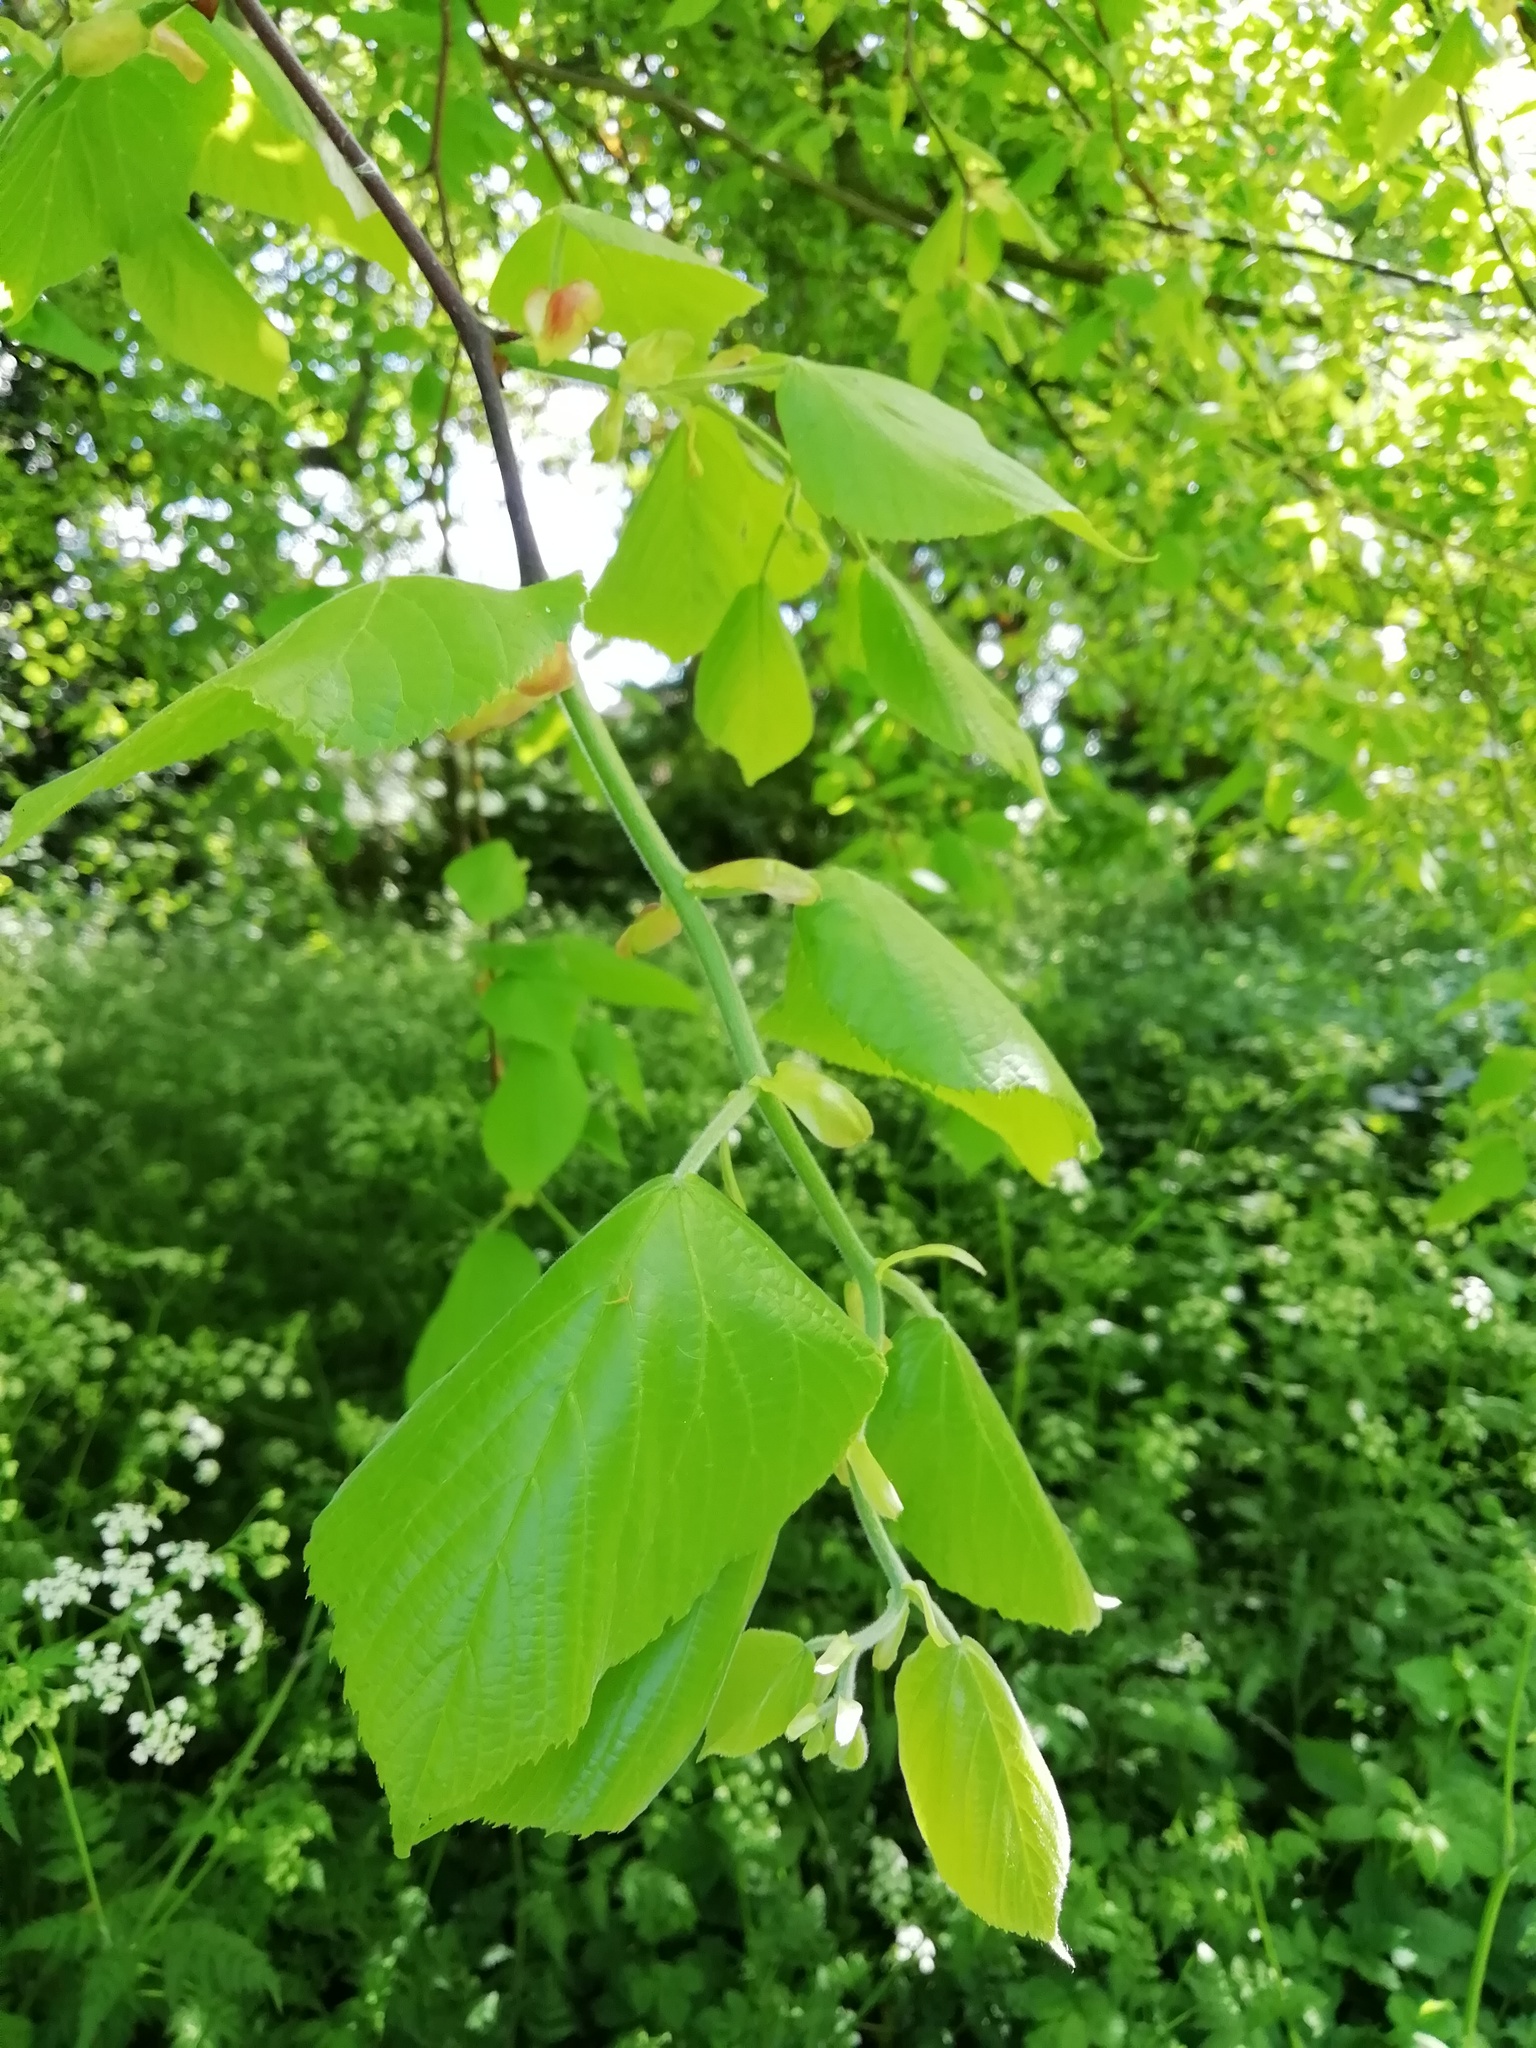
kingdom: Plantae
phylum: Tracheophyta
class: Magnoliopsida
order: Malvales
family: Malvaceae
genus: Tilia
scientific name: Tilia europaea
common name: European linden
